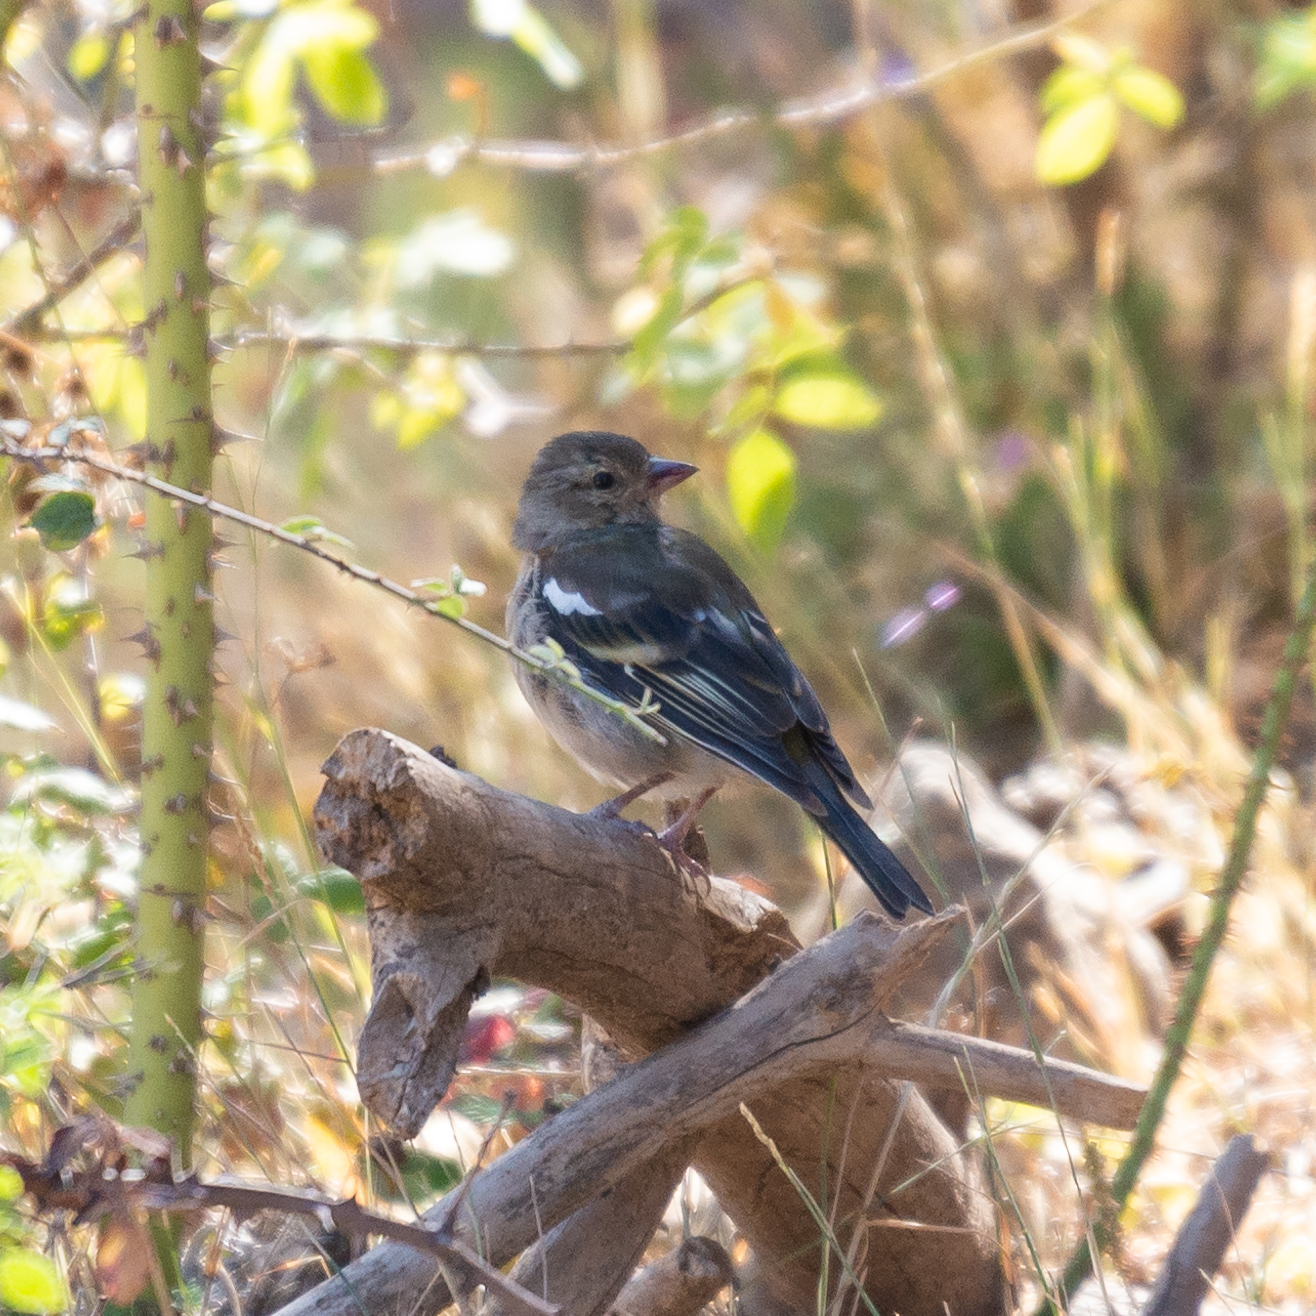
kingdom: Animalia
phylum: Chordata
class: Aves
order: Passeriformes
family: Fringillidae
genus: Fringilla
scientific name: Fringilla coelebs
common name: Common chaffinch
